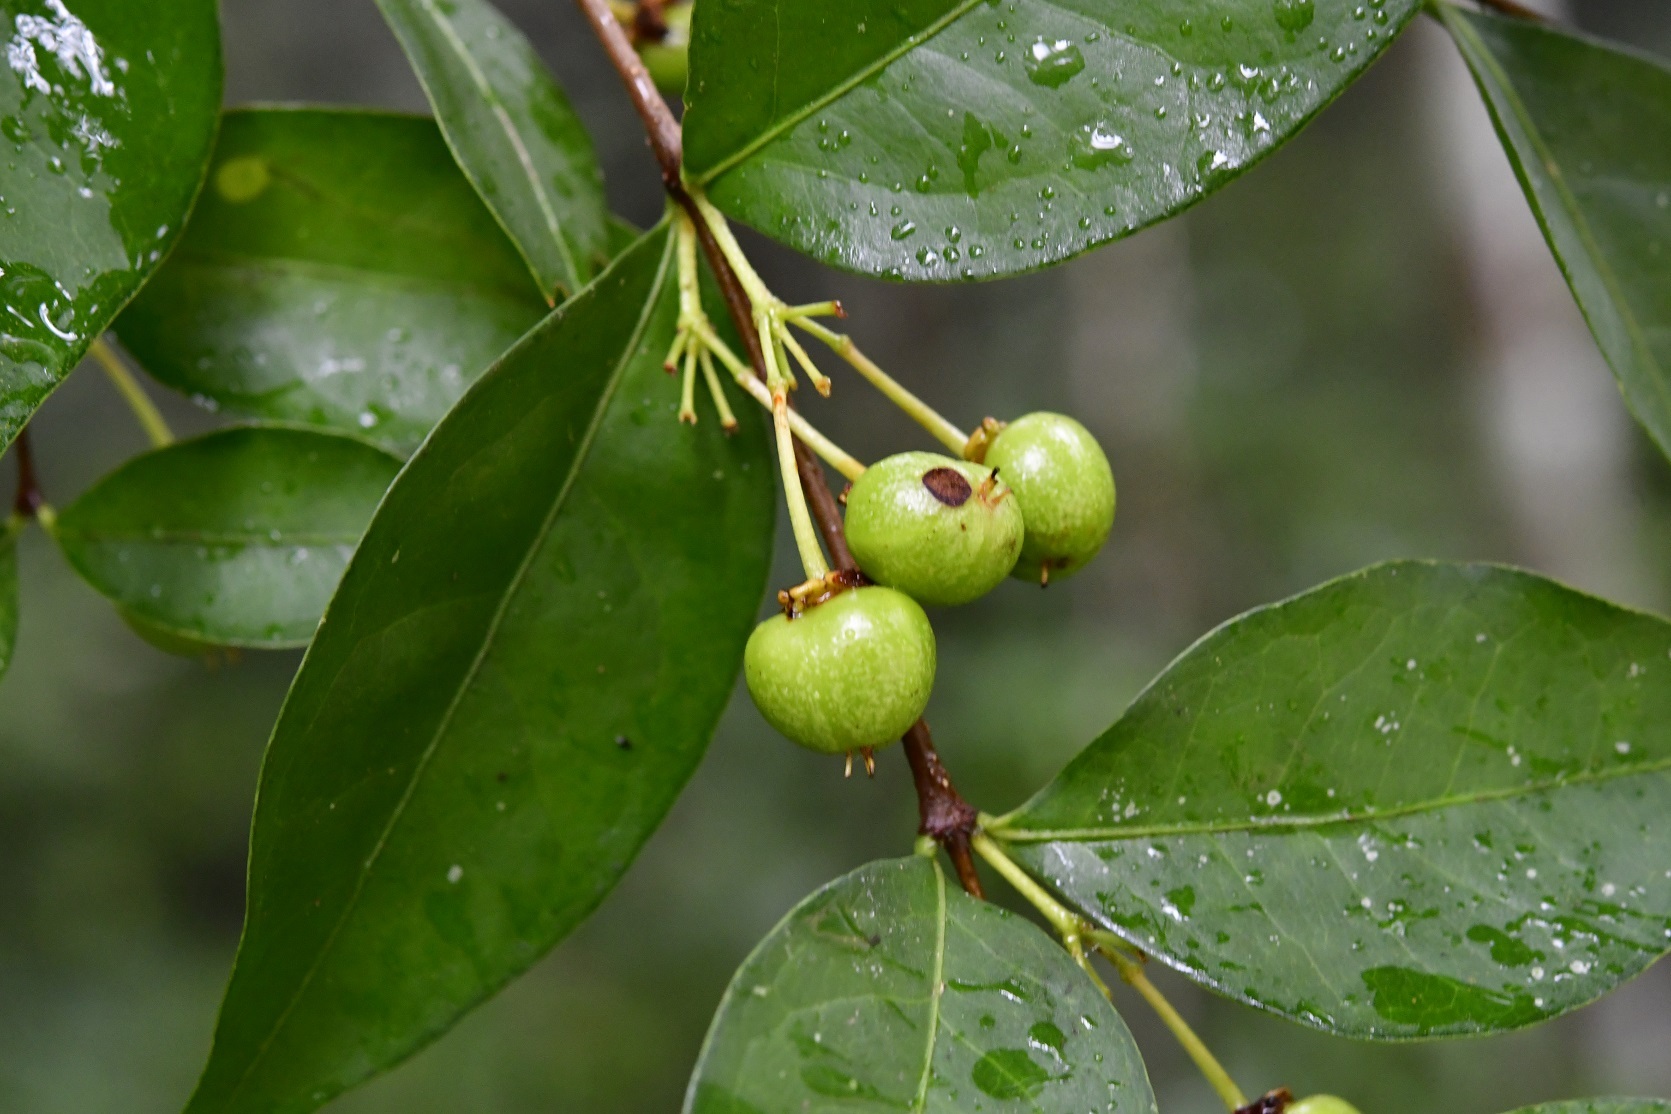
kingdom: Plantae
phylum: Tracheophyta
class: Magnoliopsida
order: Malpighiales
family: Malpighiaceae
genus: Malpighia
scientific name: Malpighia glabra
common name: Barbados cherry
